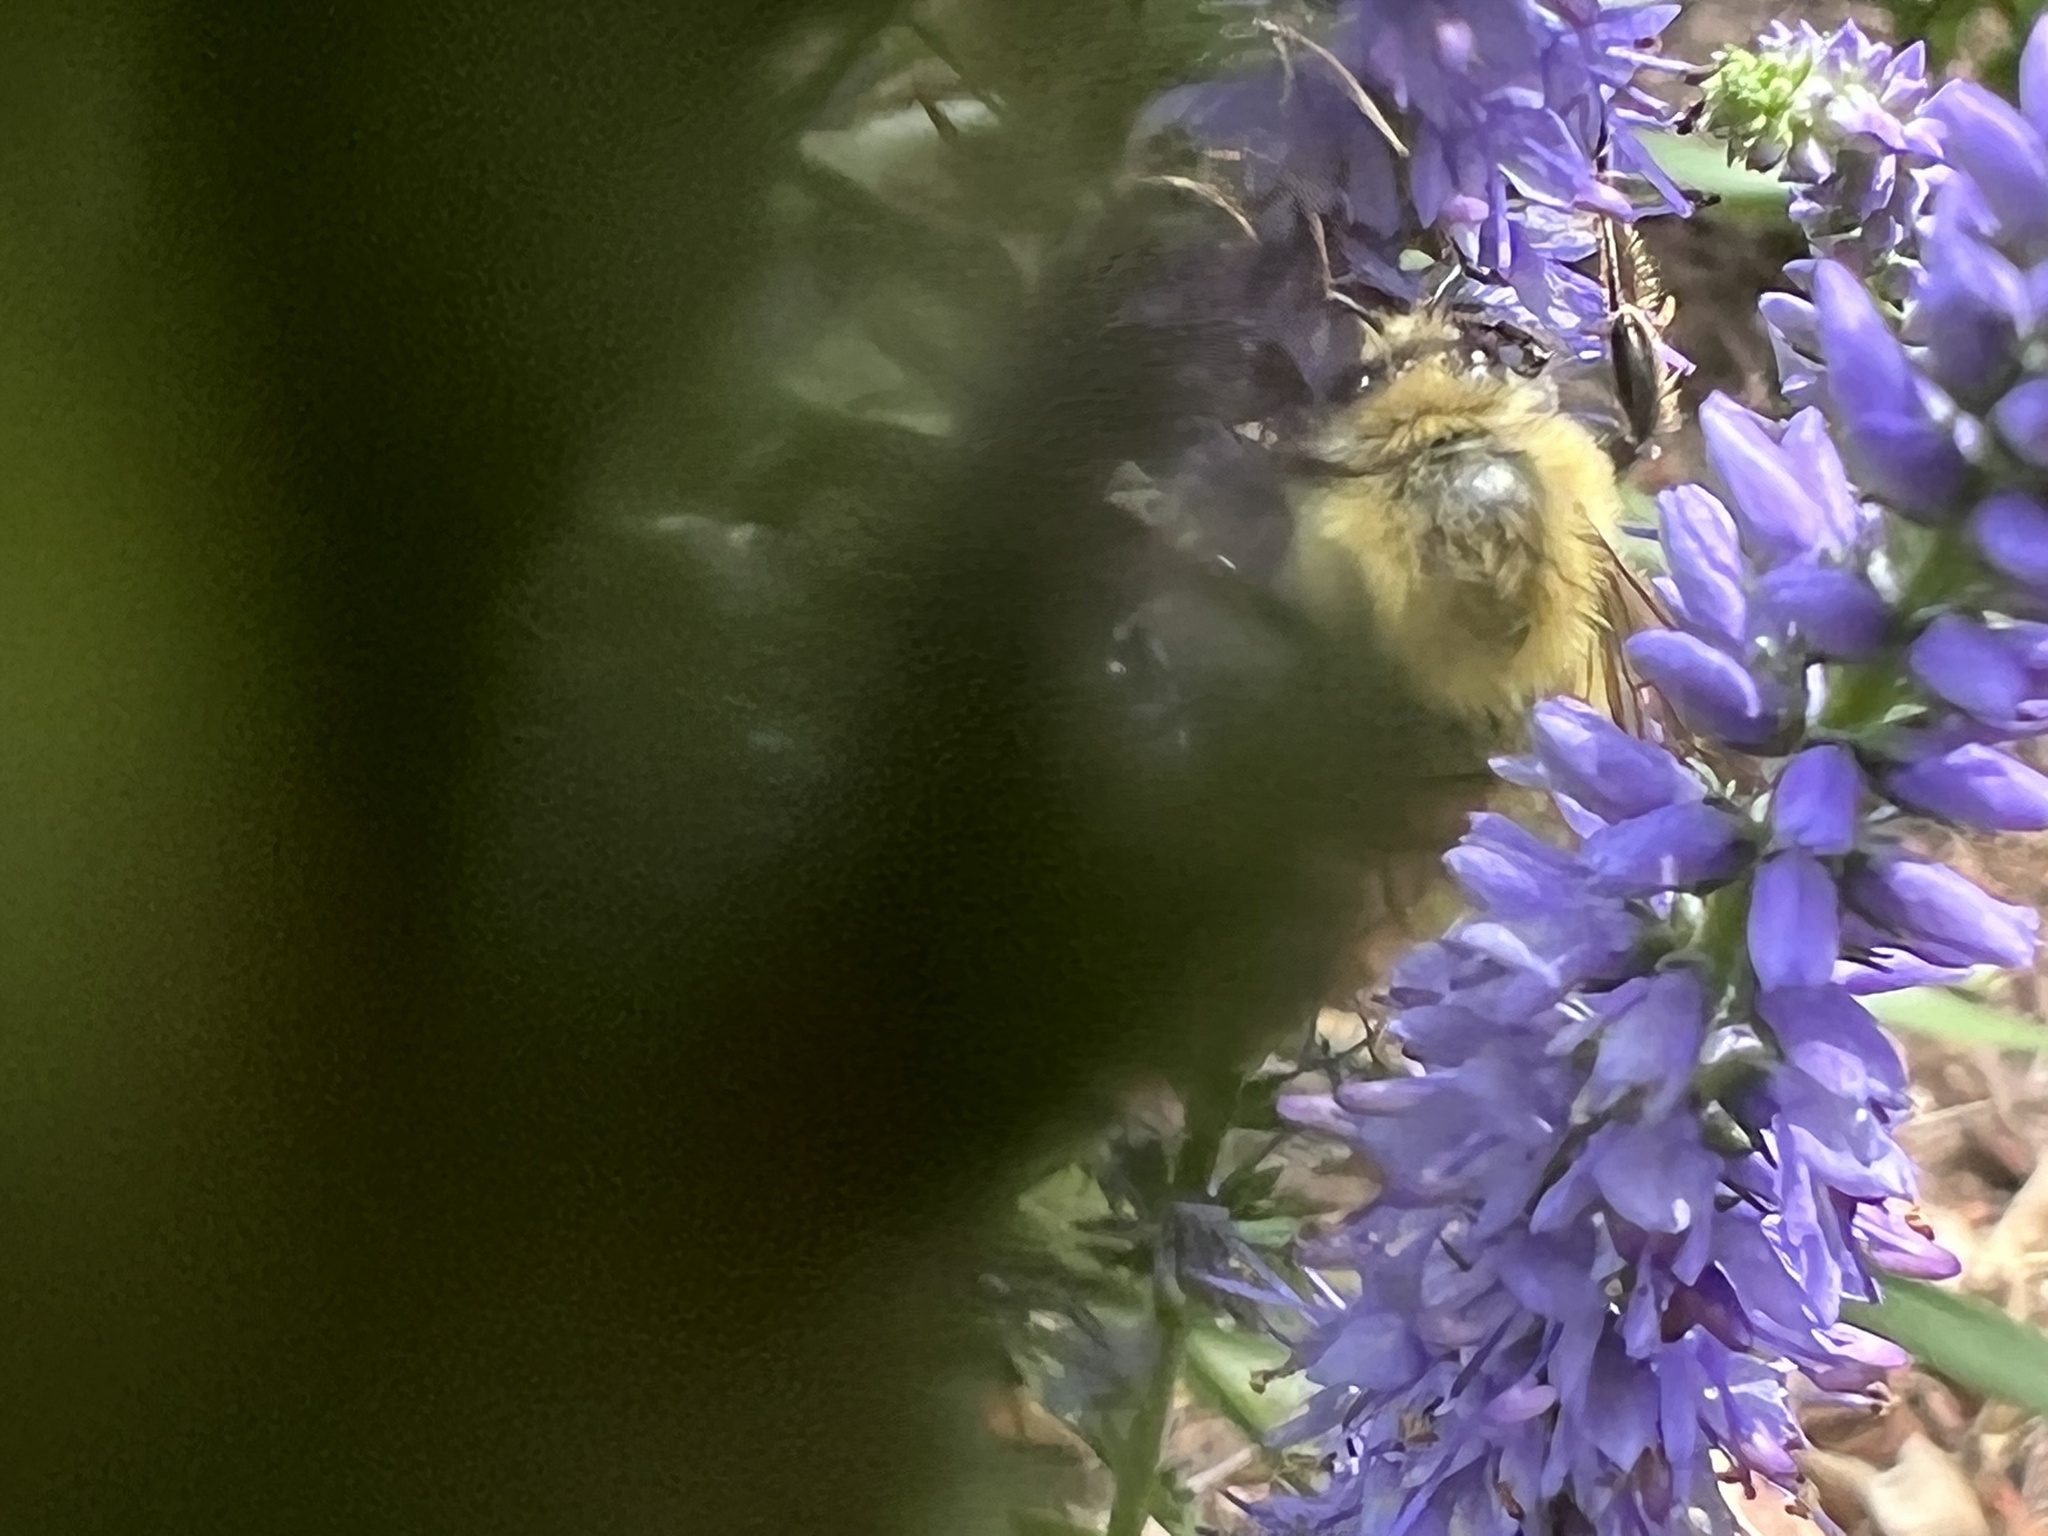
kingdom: Animalia
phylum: Arthropoda
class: Insecta
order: Hymenoptera
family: Apidae
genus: Bombus
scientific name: Bombus bimaculatus
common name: Two-spotted bumble bee
